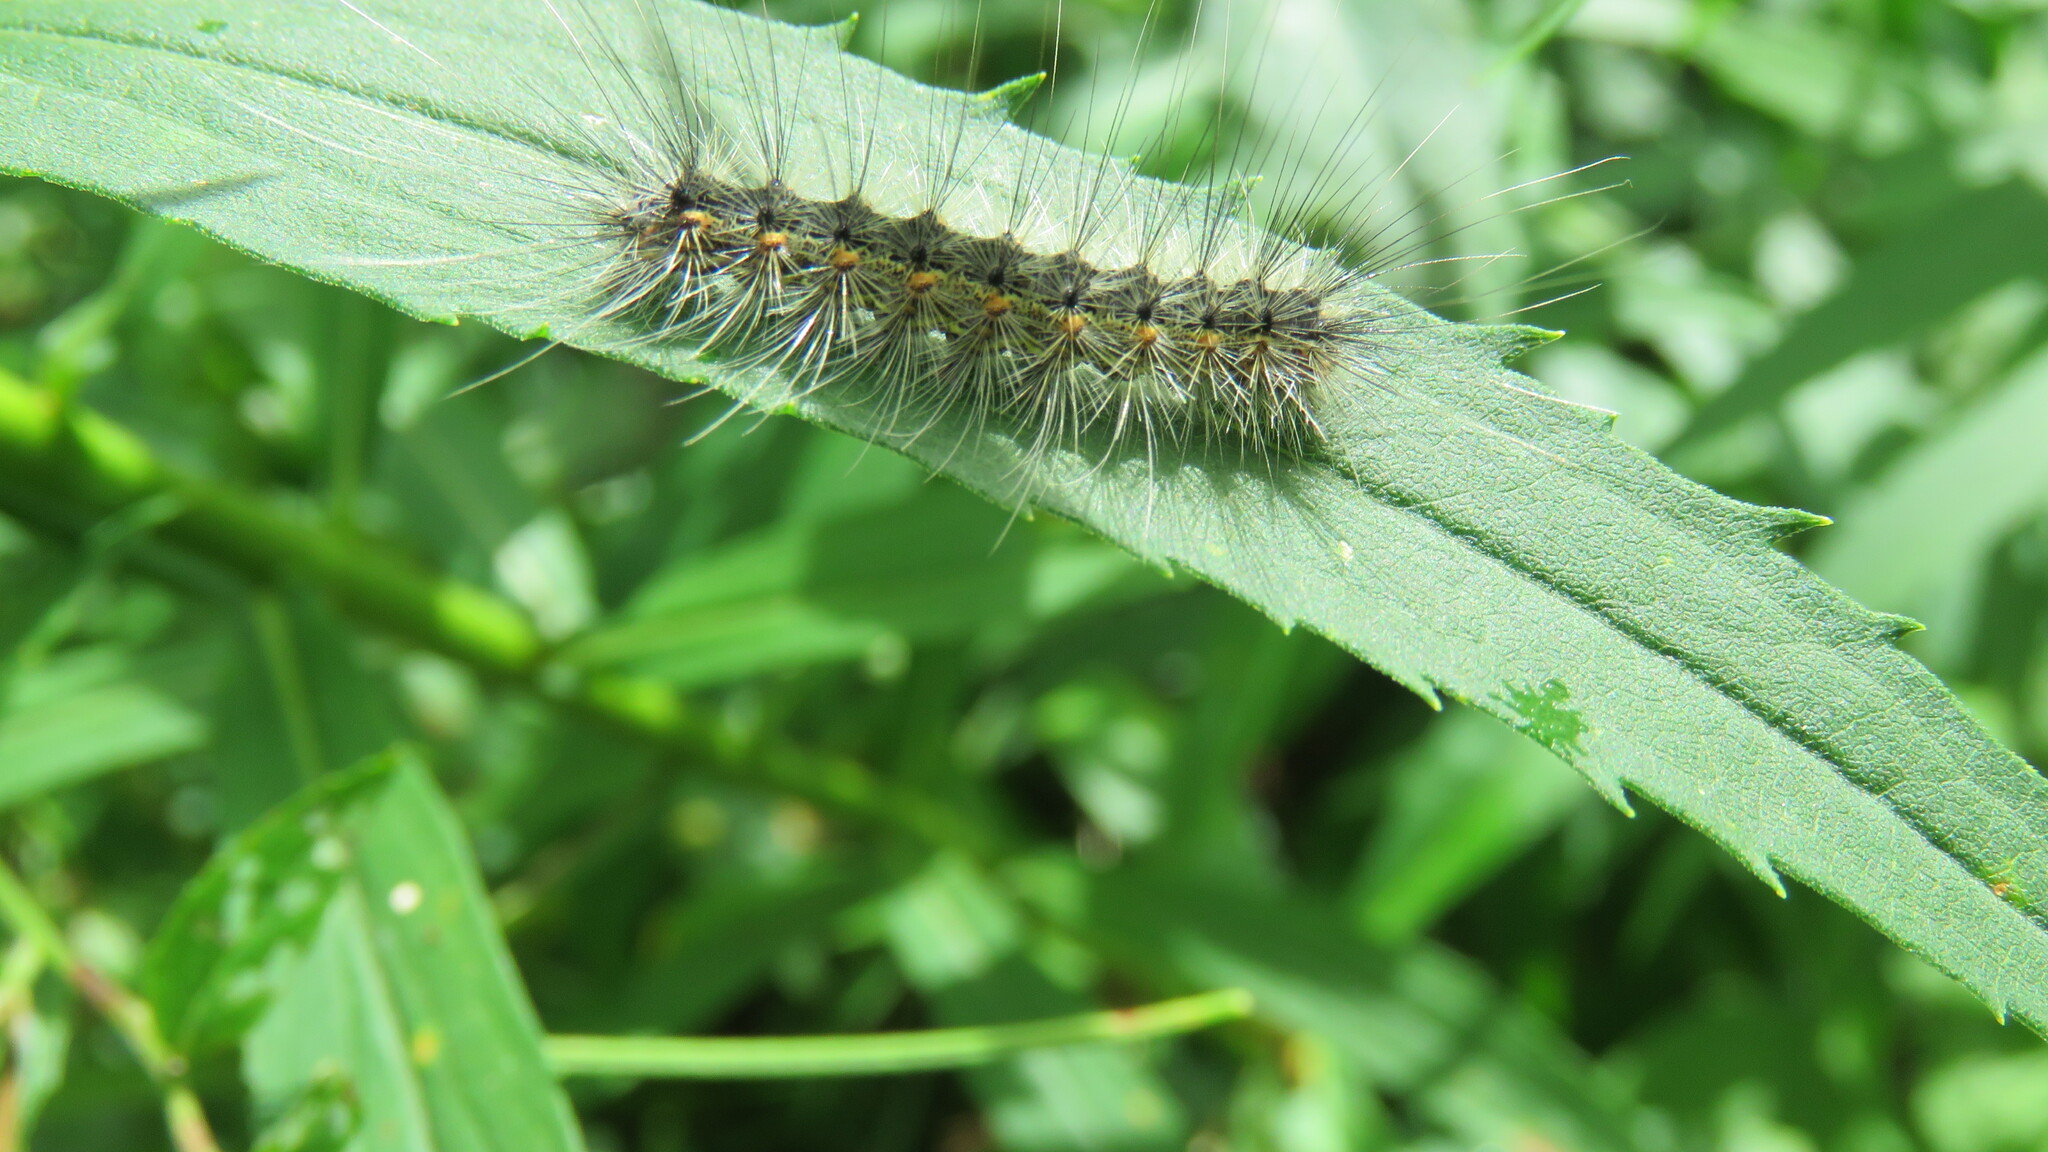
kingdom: Animalia
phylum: Arthropoda
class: Insecta
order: Lepidoptera
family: Erebidae
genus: Hyphantria
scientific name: Hyphantria cunea
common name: American white moth
